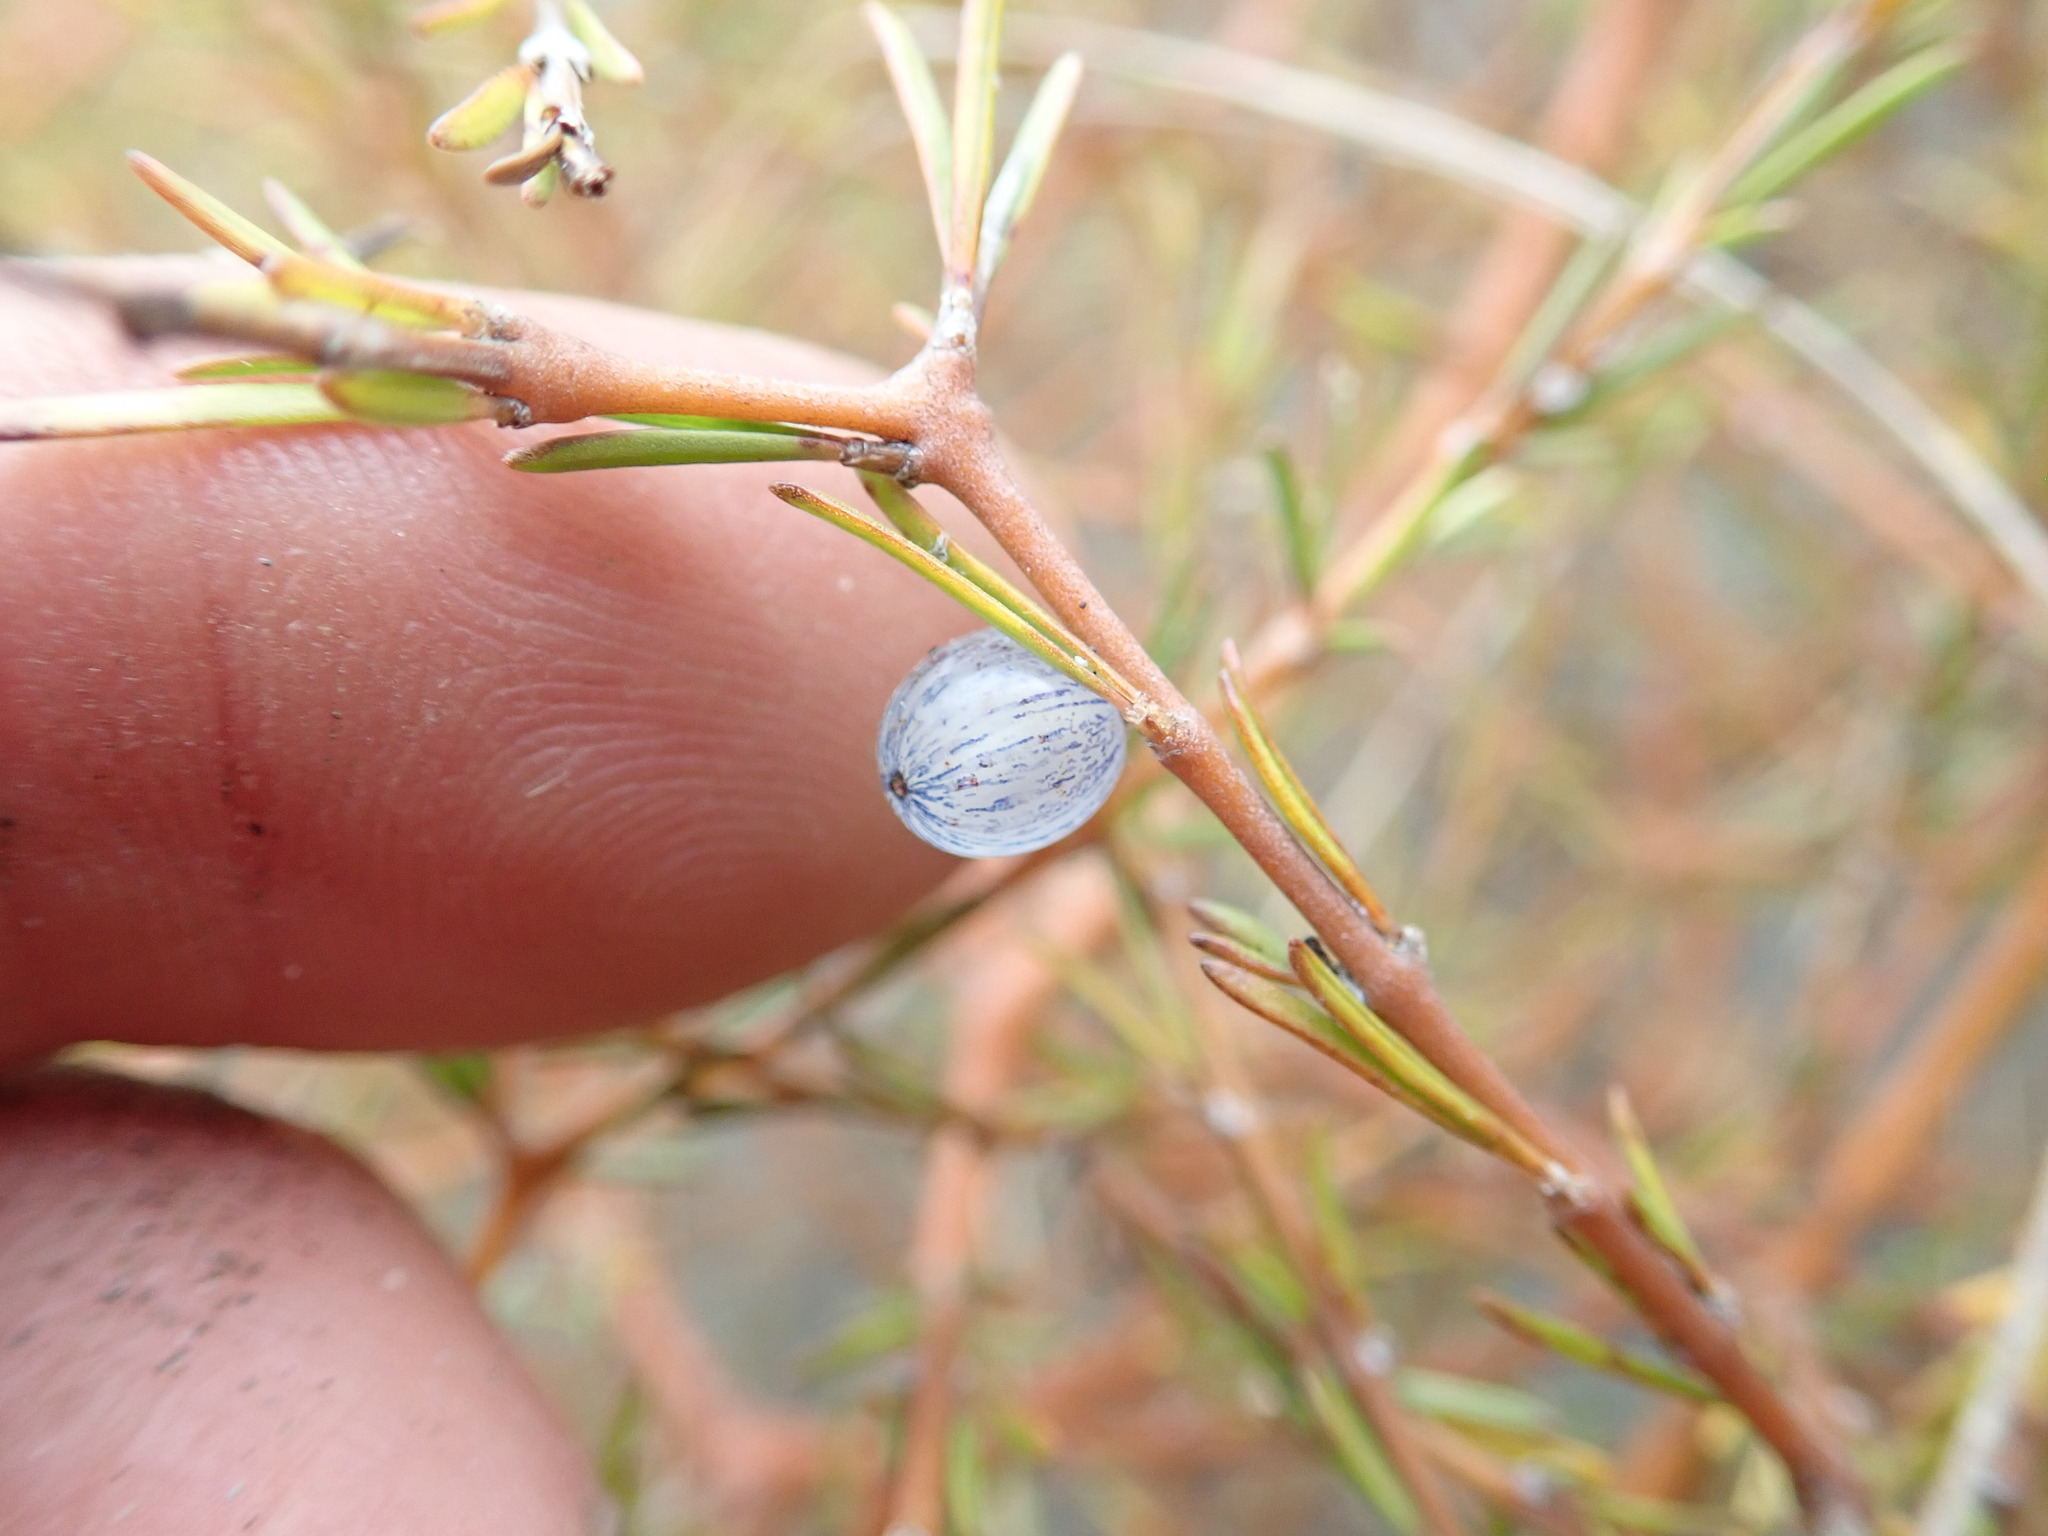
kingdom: Plantae
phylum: Tracheophyta
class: Magnoliopsida
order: Gentianales
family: Rubiaceae
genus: Coprosma
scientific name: Coprosma acerosa
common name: Sand coprosma
